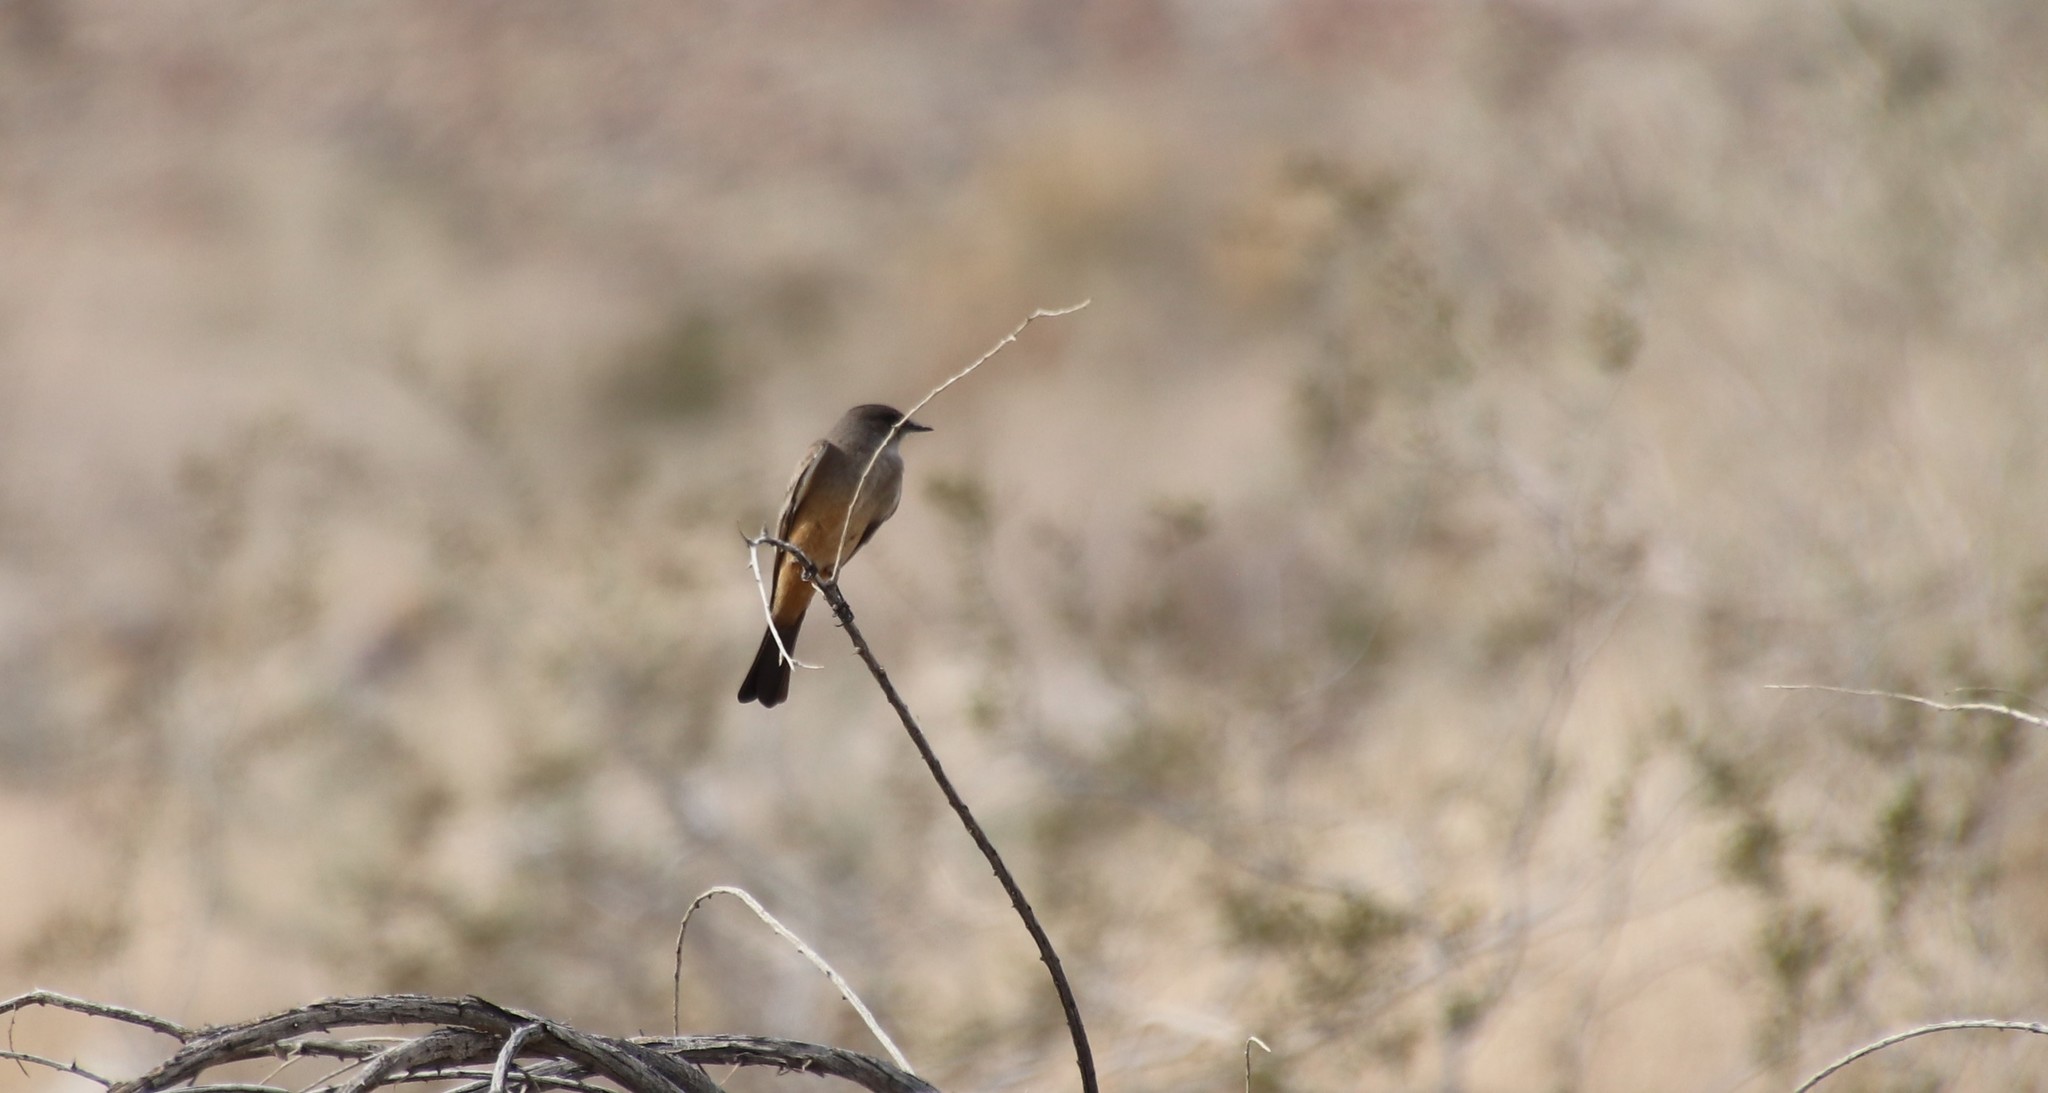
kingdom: Animalia
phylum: Chordata
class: Aves
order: Passeriformes
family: Tyrannidae
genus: Sayornis
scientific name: Sayornis saya
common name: Say's phoebe
